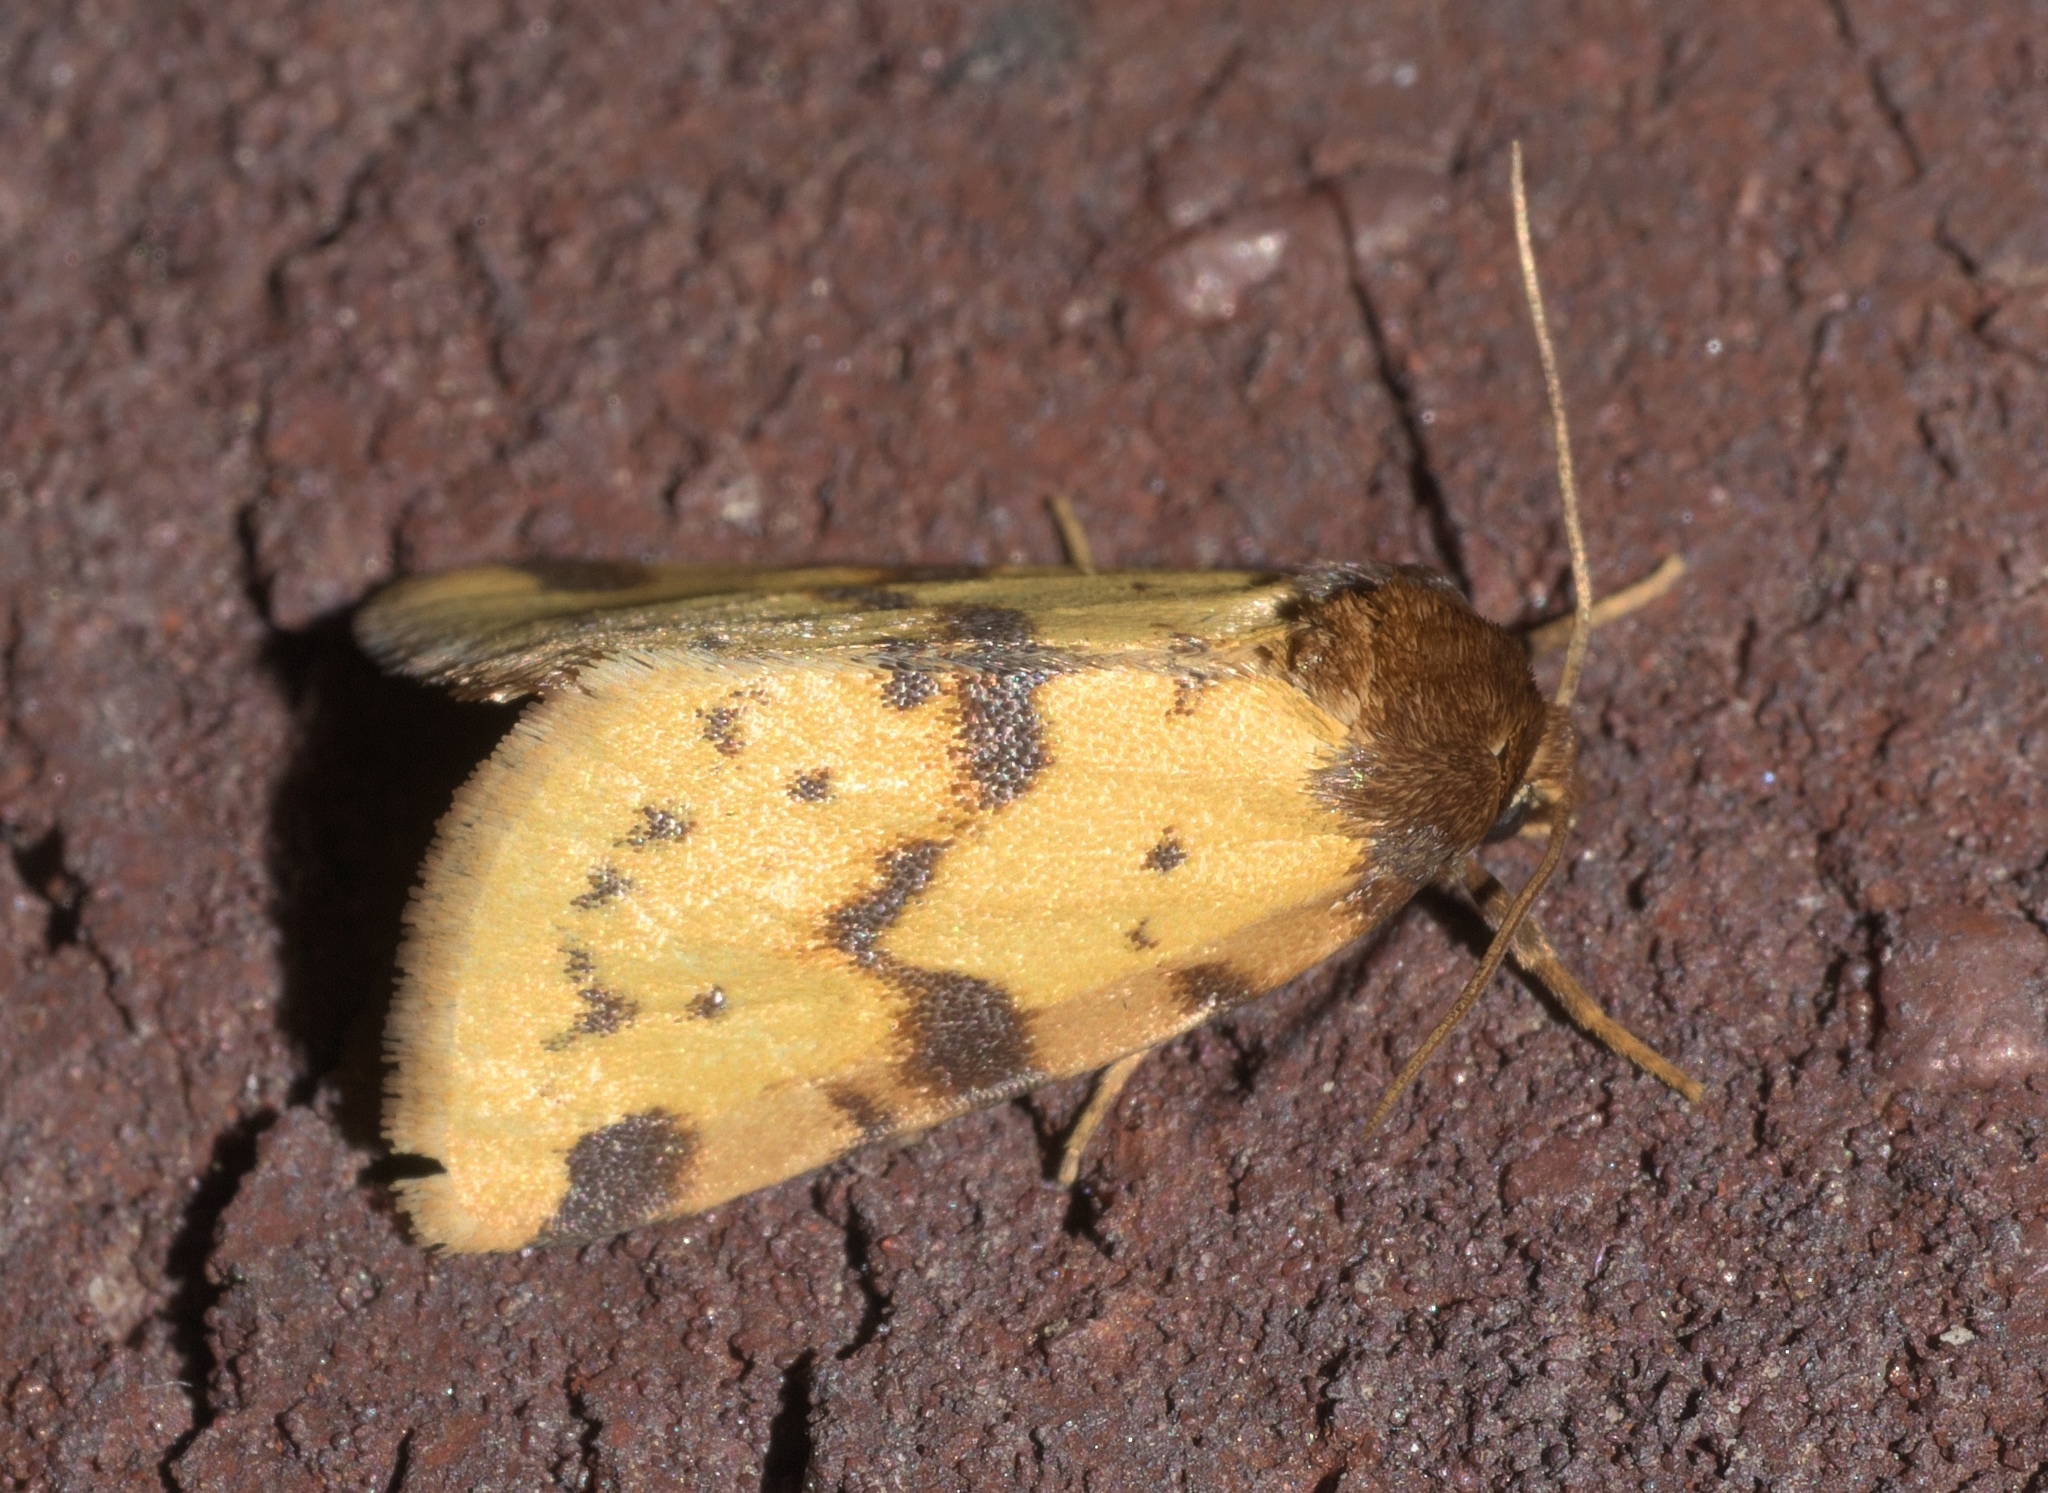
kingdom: Animalia
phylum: Arthropoda
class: Insecta
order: Lepidoptera
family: Noctuidae
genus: Azenia
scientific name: Azenia obtusa
